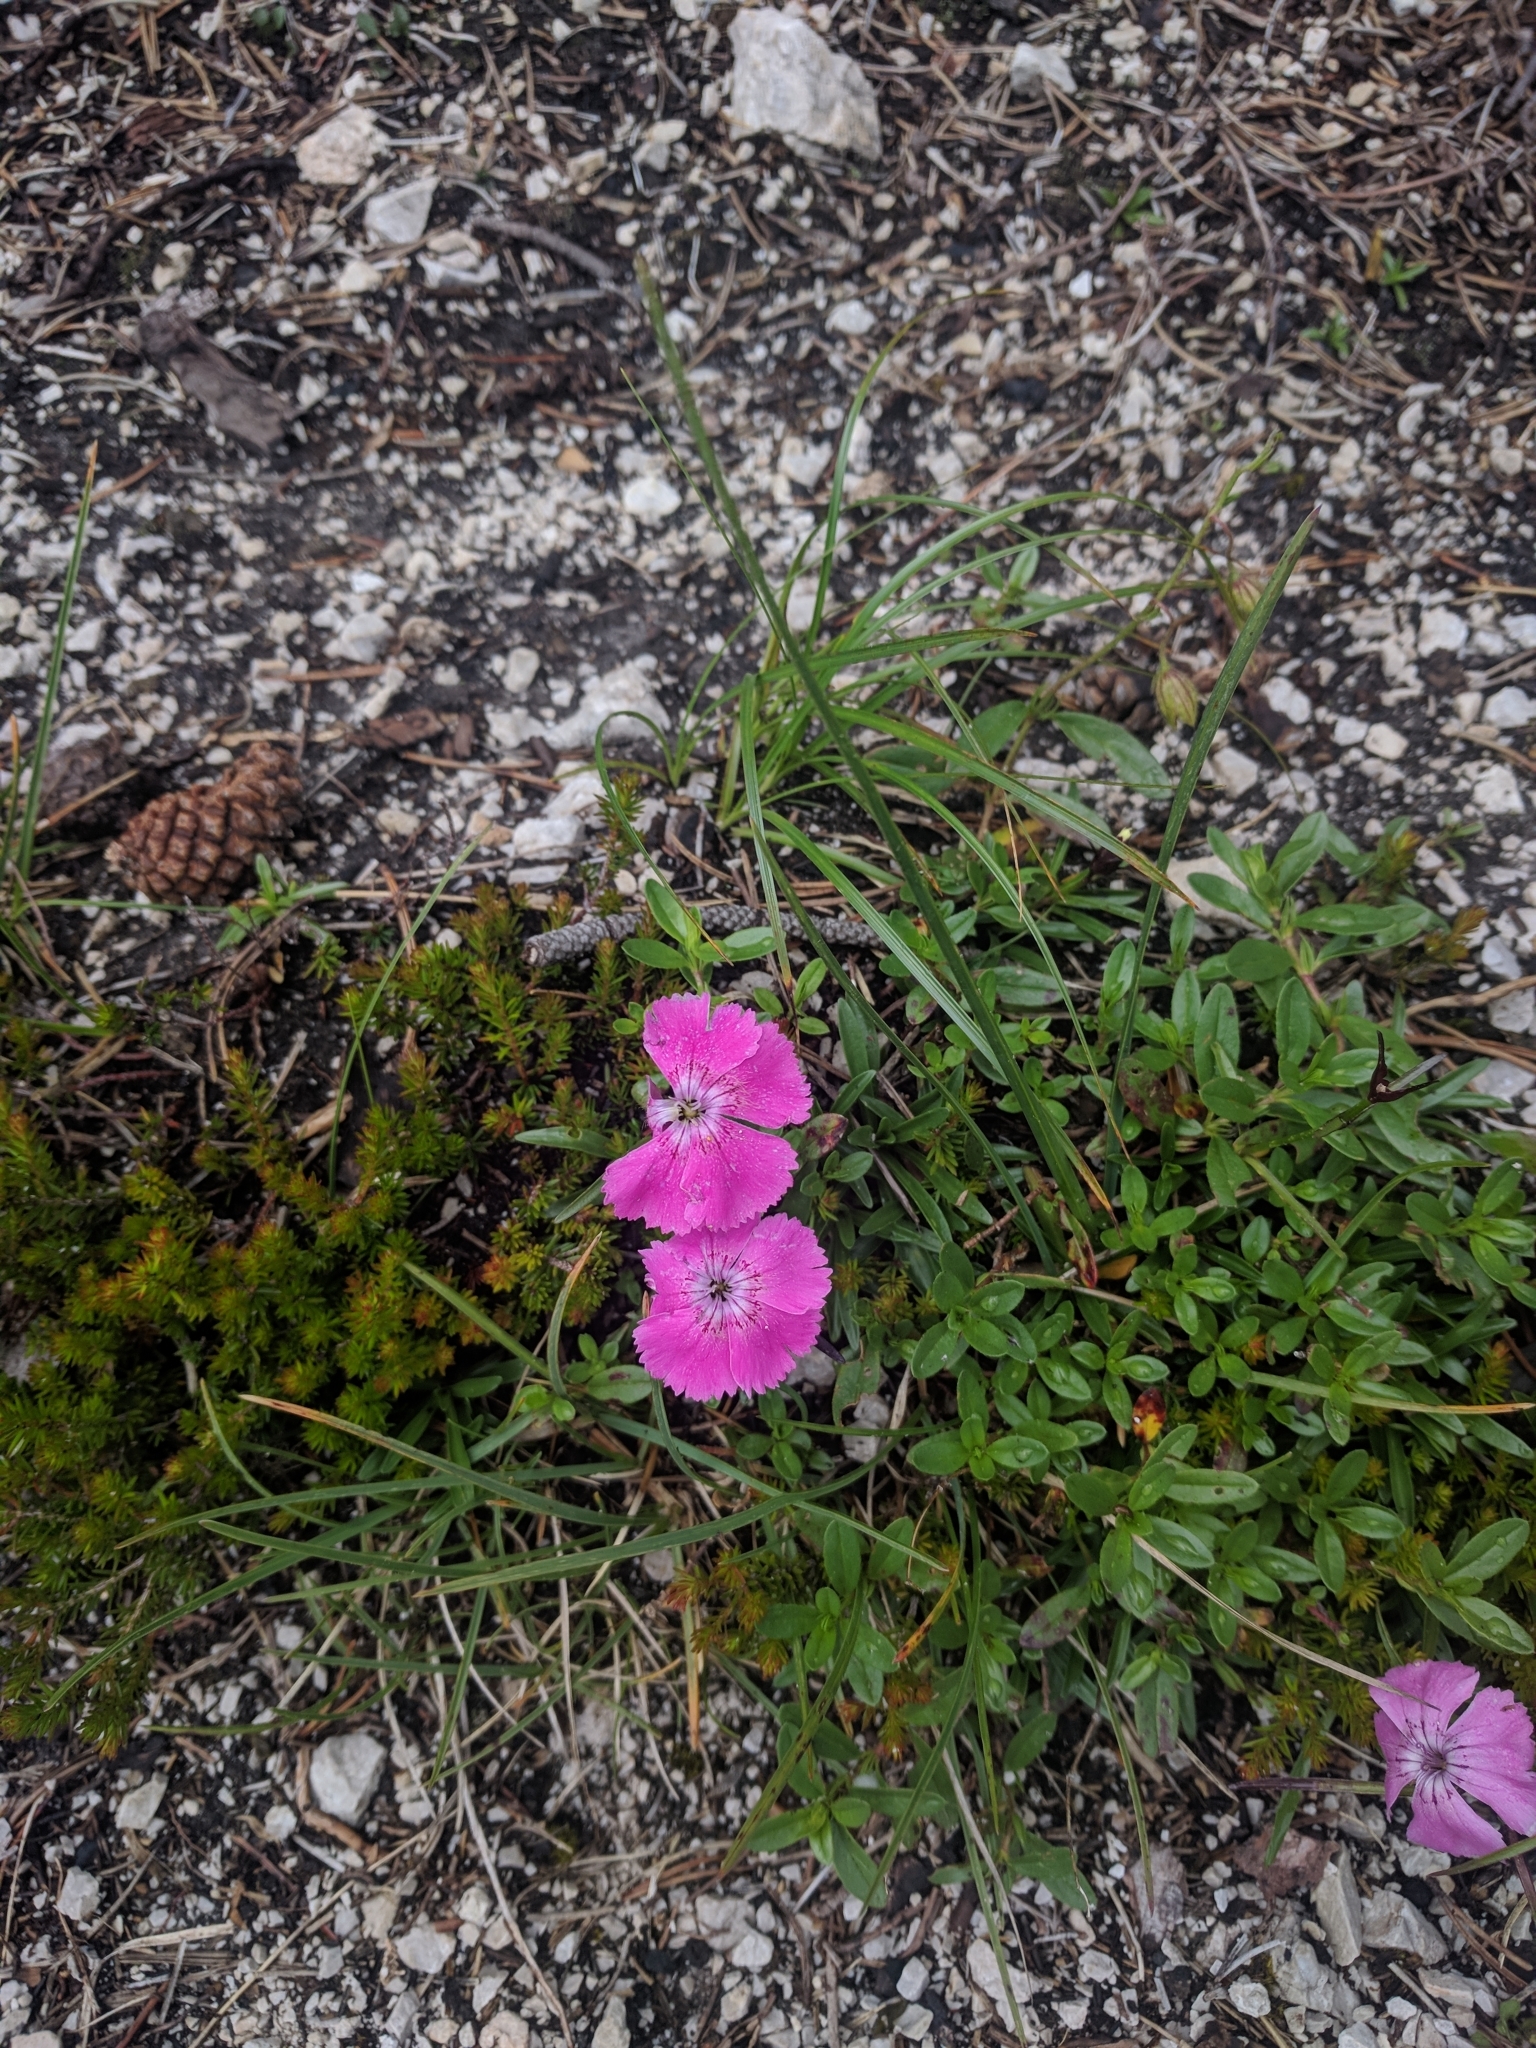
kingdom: Plantae
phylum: Tracheophyta
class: Magnoliopsida
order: Caryophyllales
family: Caryophyllaceae
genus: Dianthus
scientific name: Dianthus alpinus
